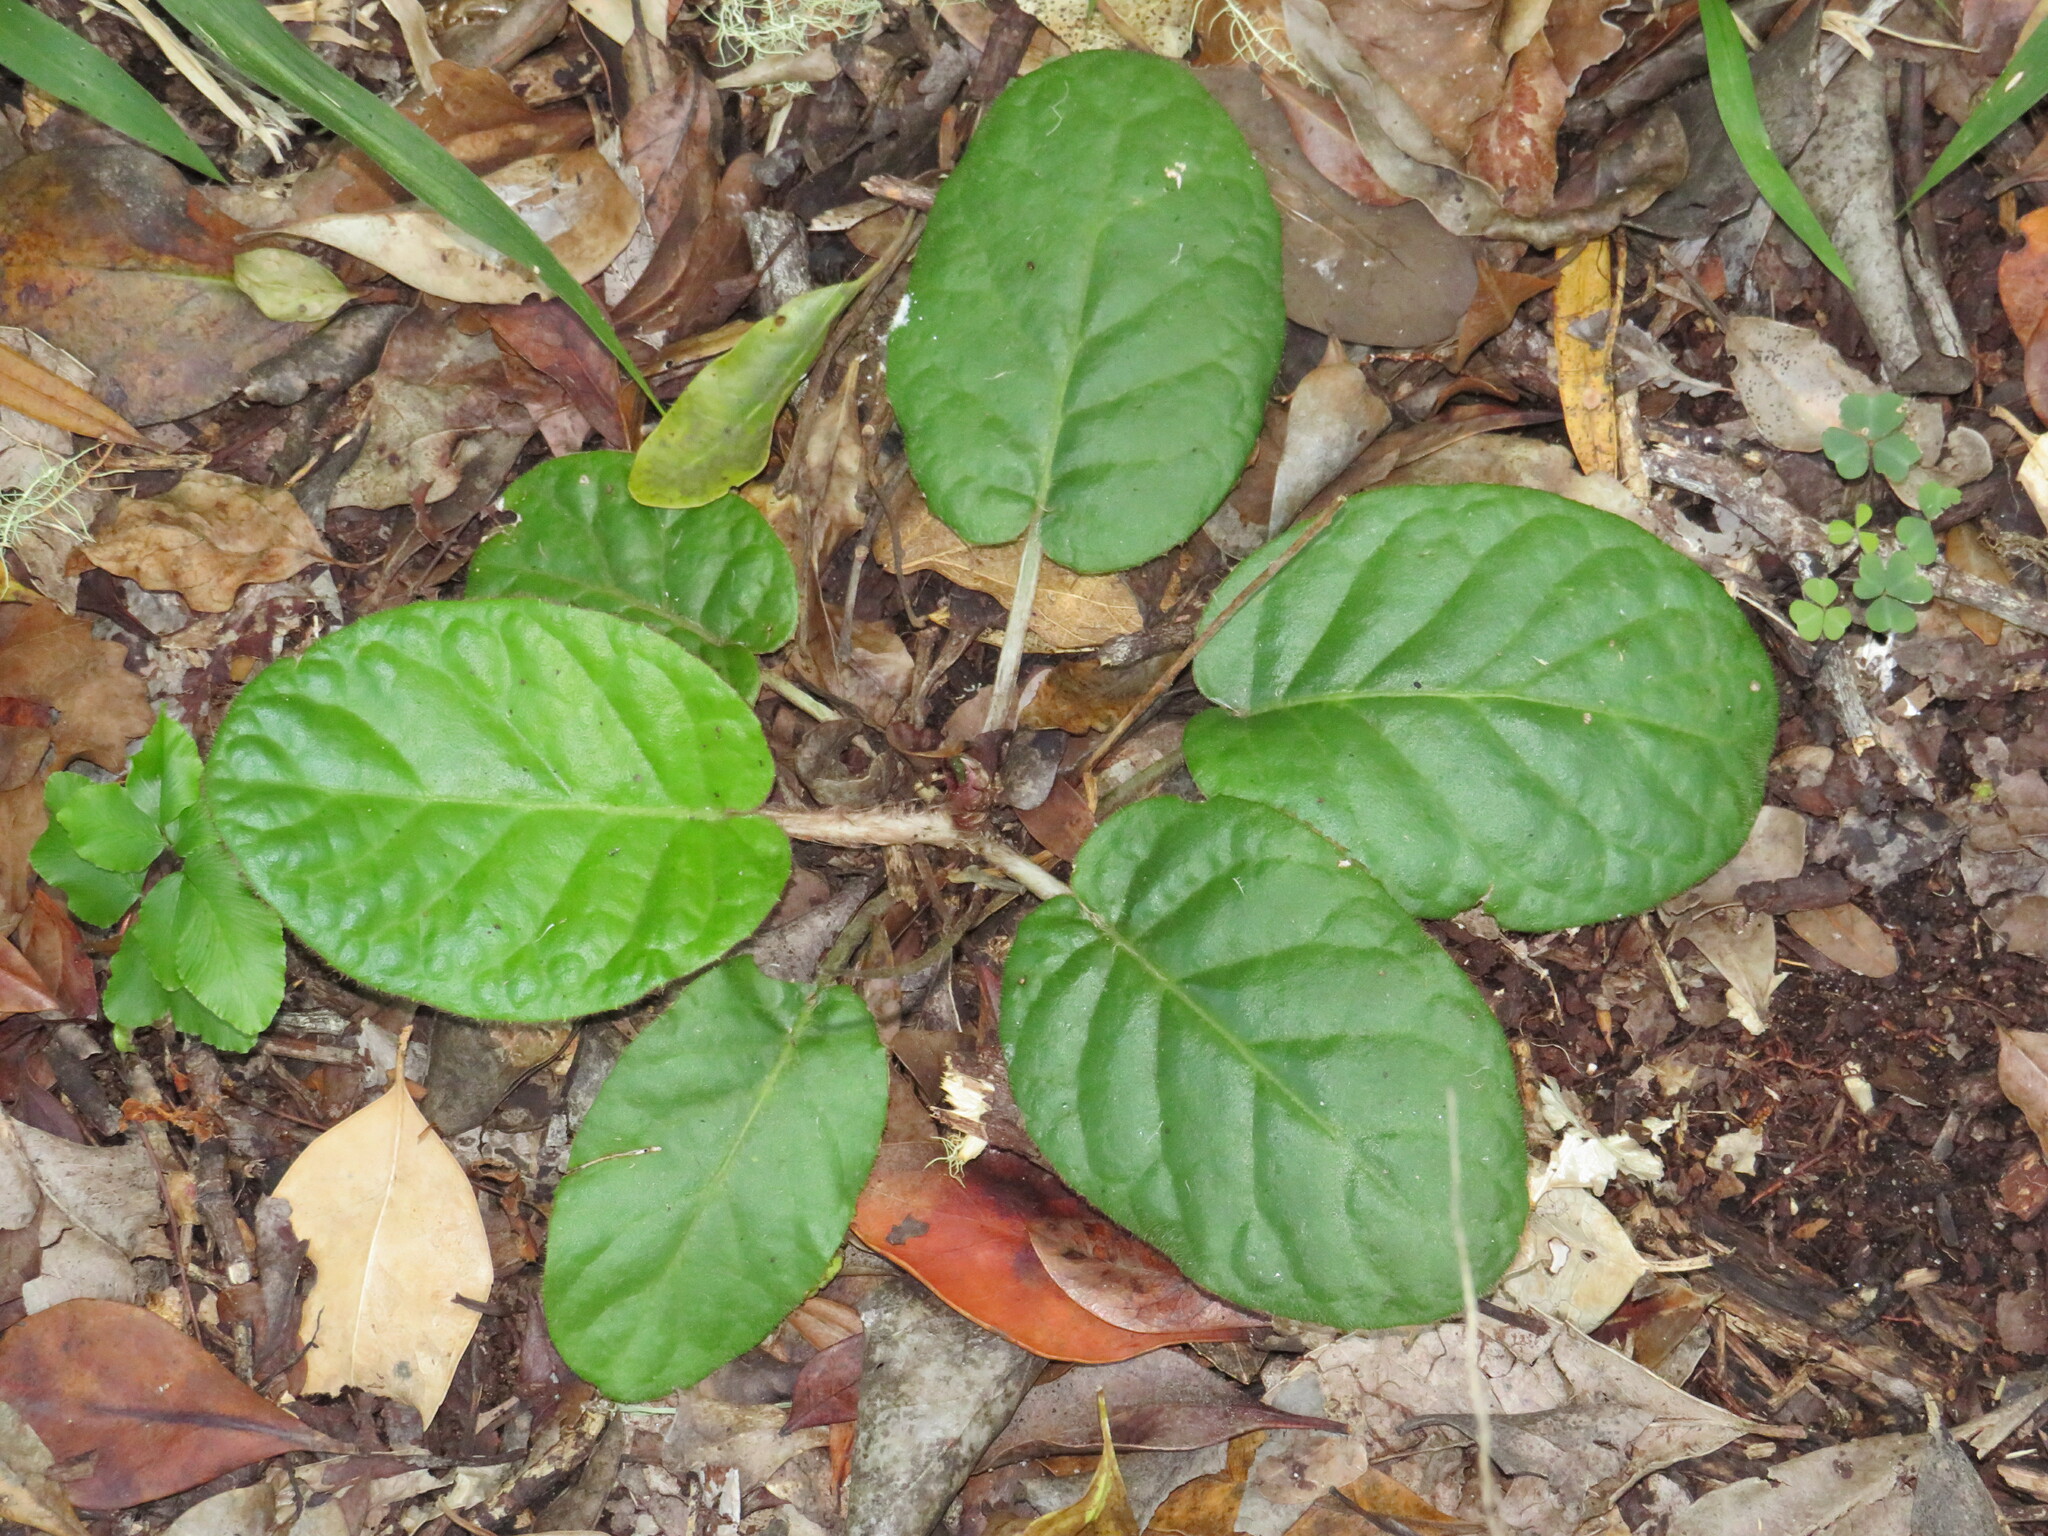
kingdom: Plantae
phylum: Tracheophyta
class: Magnoliopsida
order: Asterales
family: Asteraceae
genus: Piloselloides
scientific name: Piloselloides cordata
